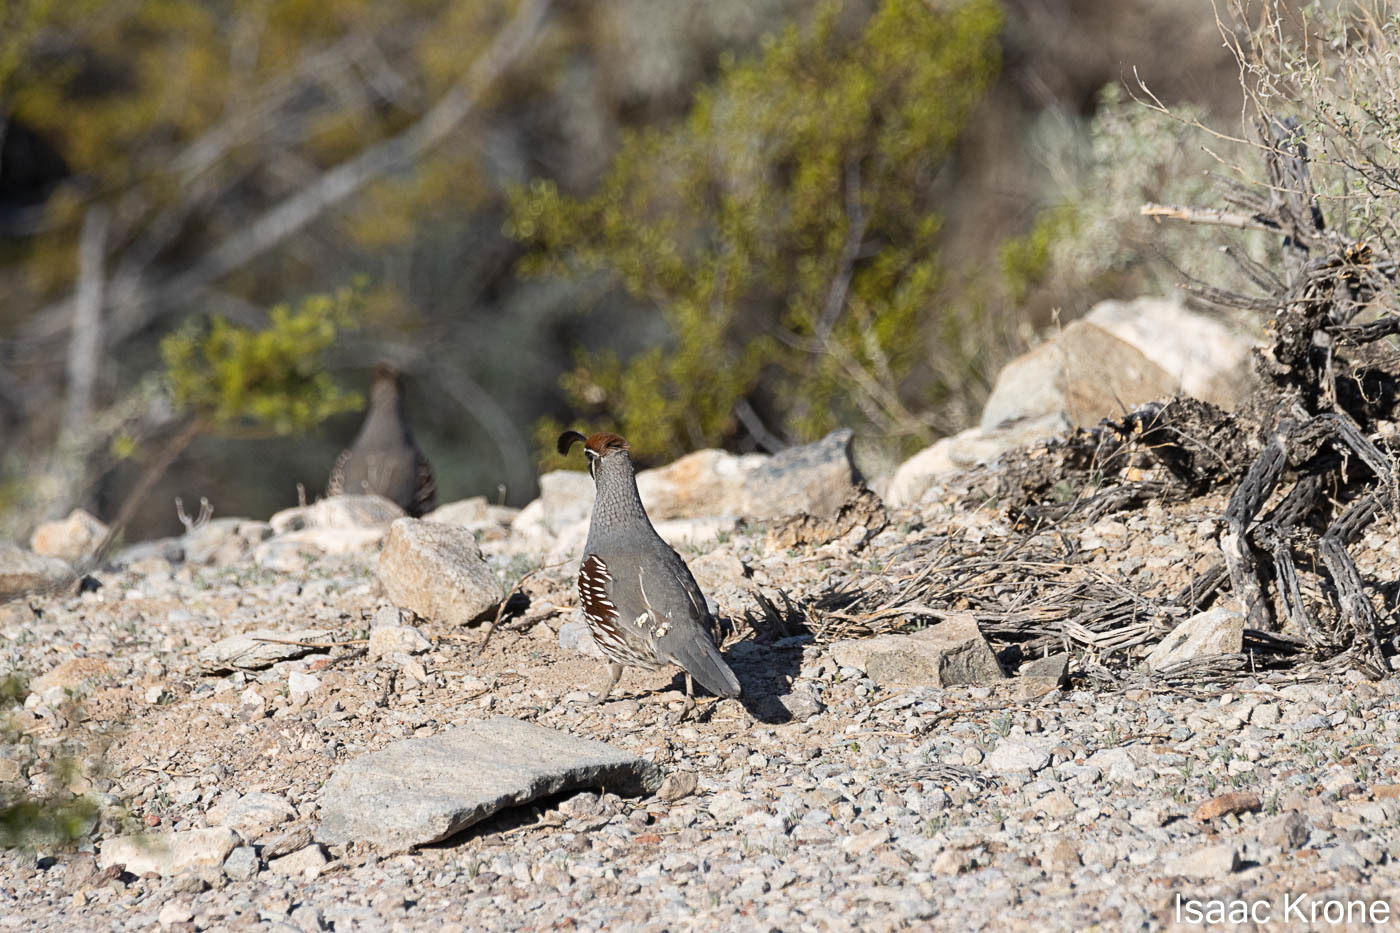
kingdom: Animalia
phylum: Chordata
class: Aves
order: Galliformes
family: Odontophoridae
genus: Callipepla
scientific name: Callipepla gambelii
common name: Gambel's quail
